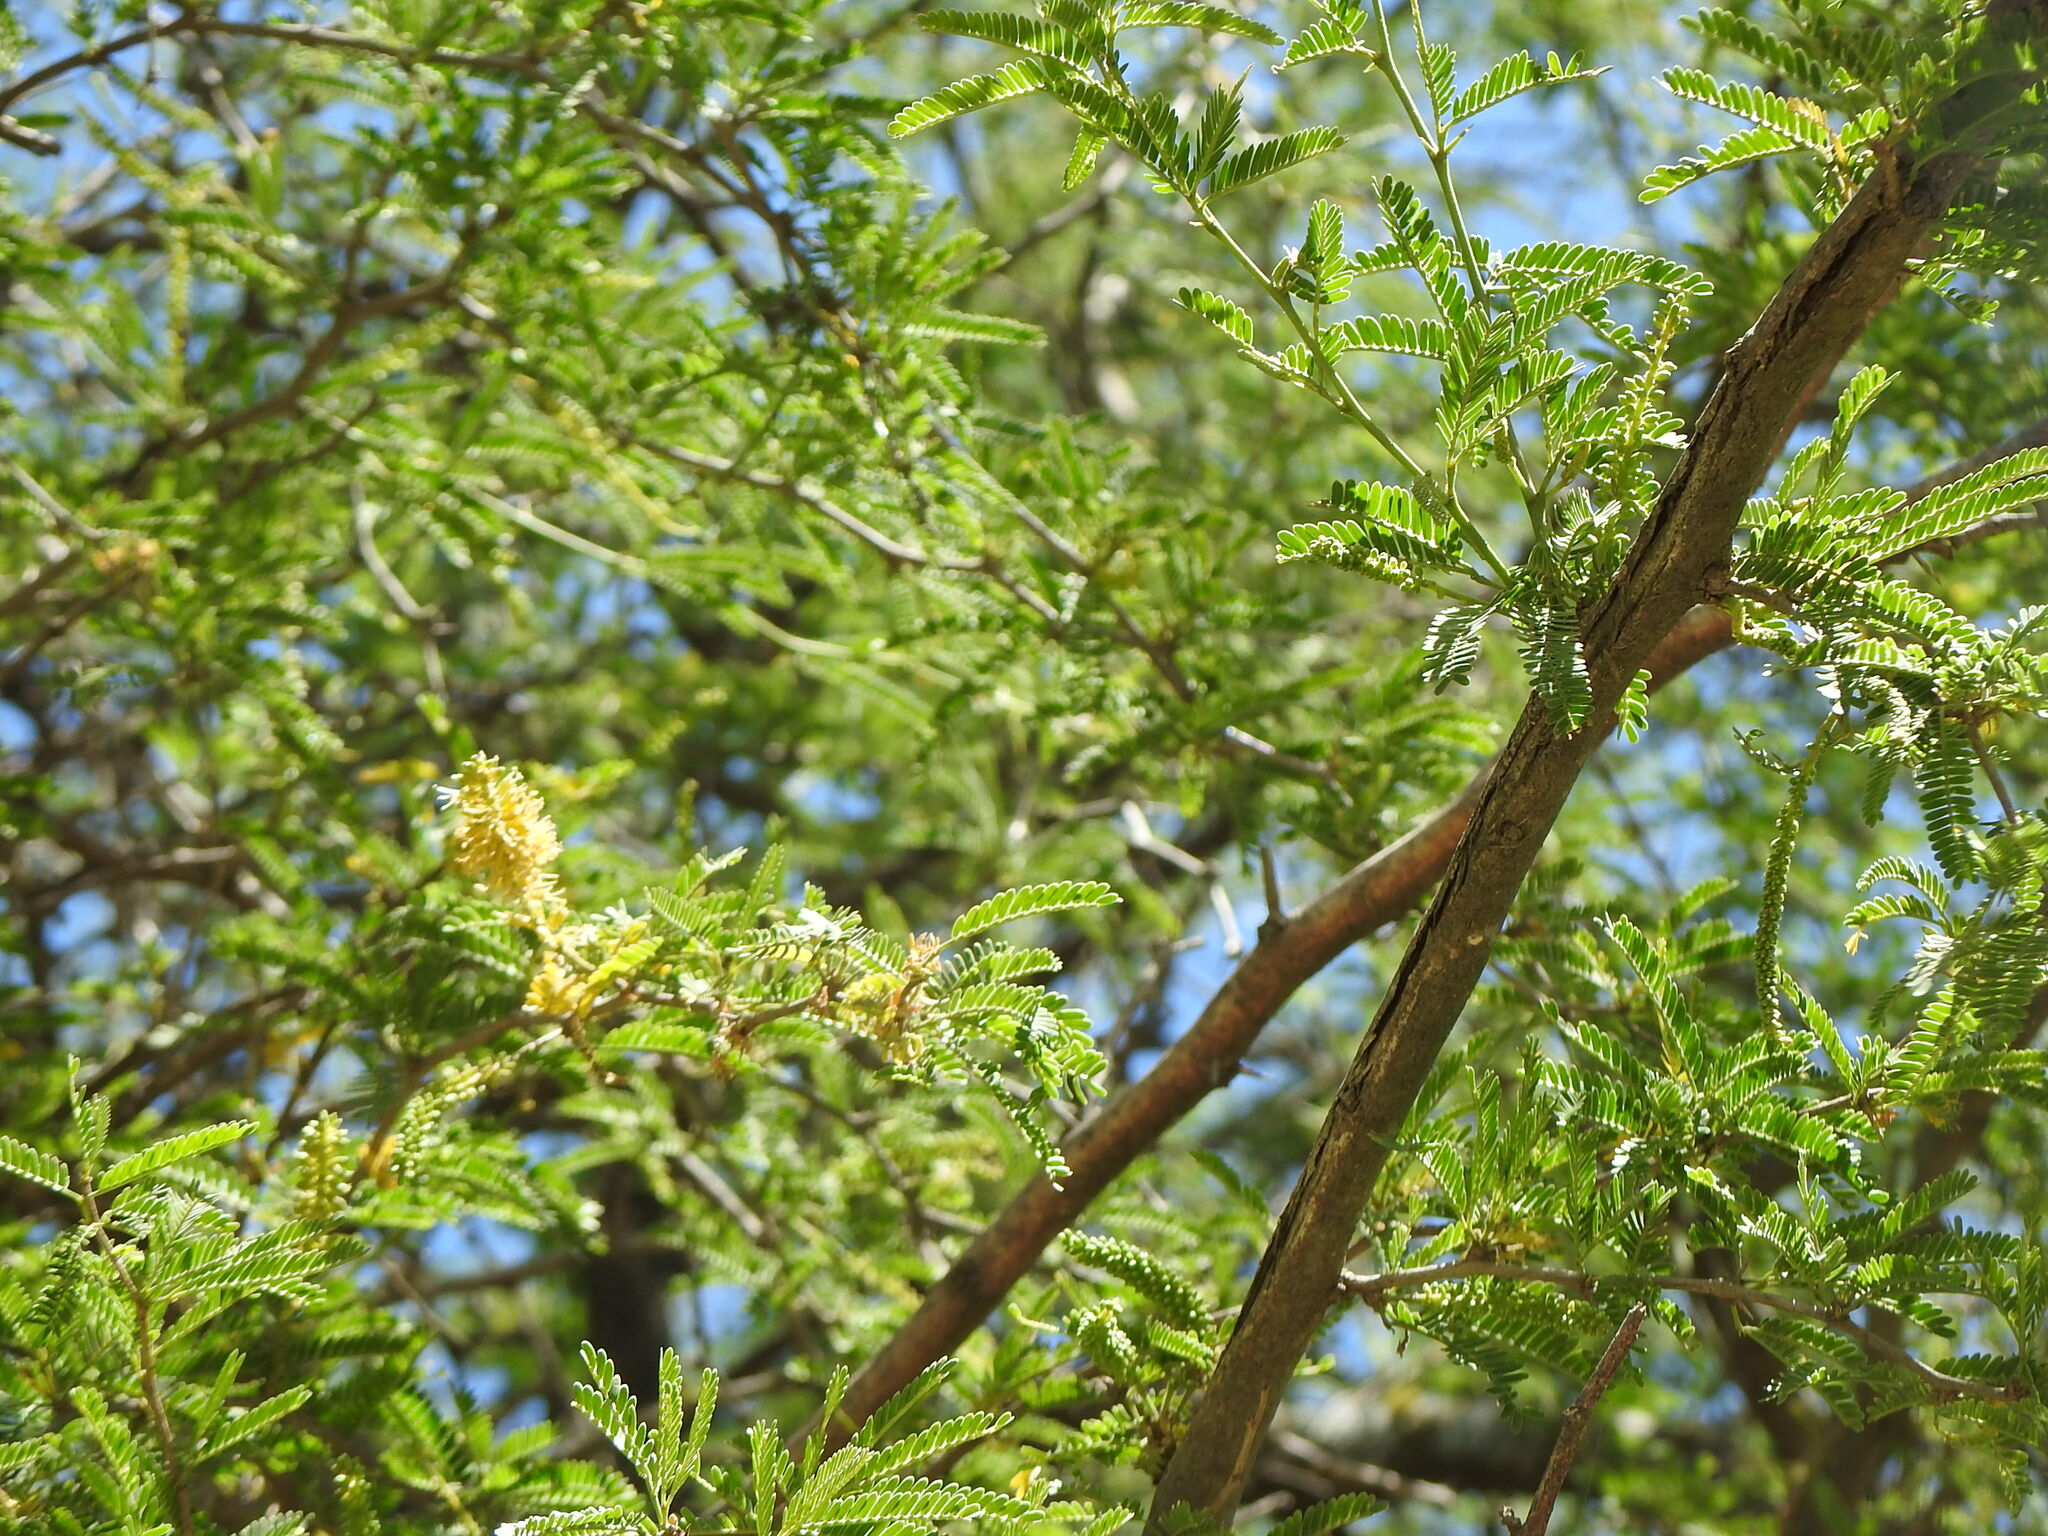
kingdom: Plantae
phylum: Tracheophyta
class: Magnoliopsida
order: Fabales
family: Fabaceae
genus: Prosopis
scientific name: Prosopis affinis
